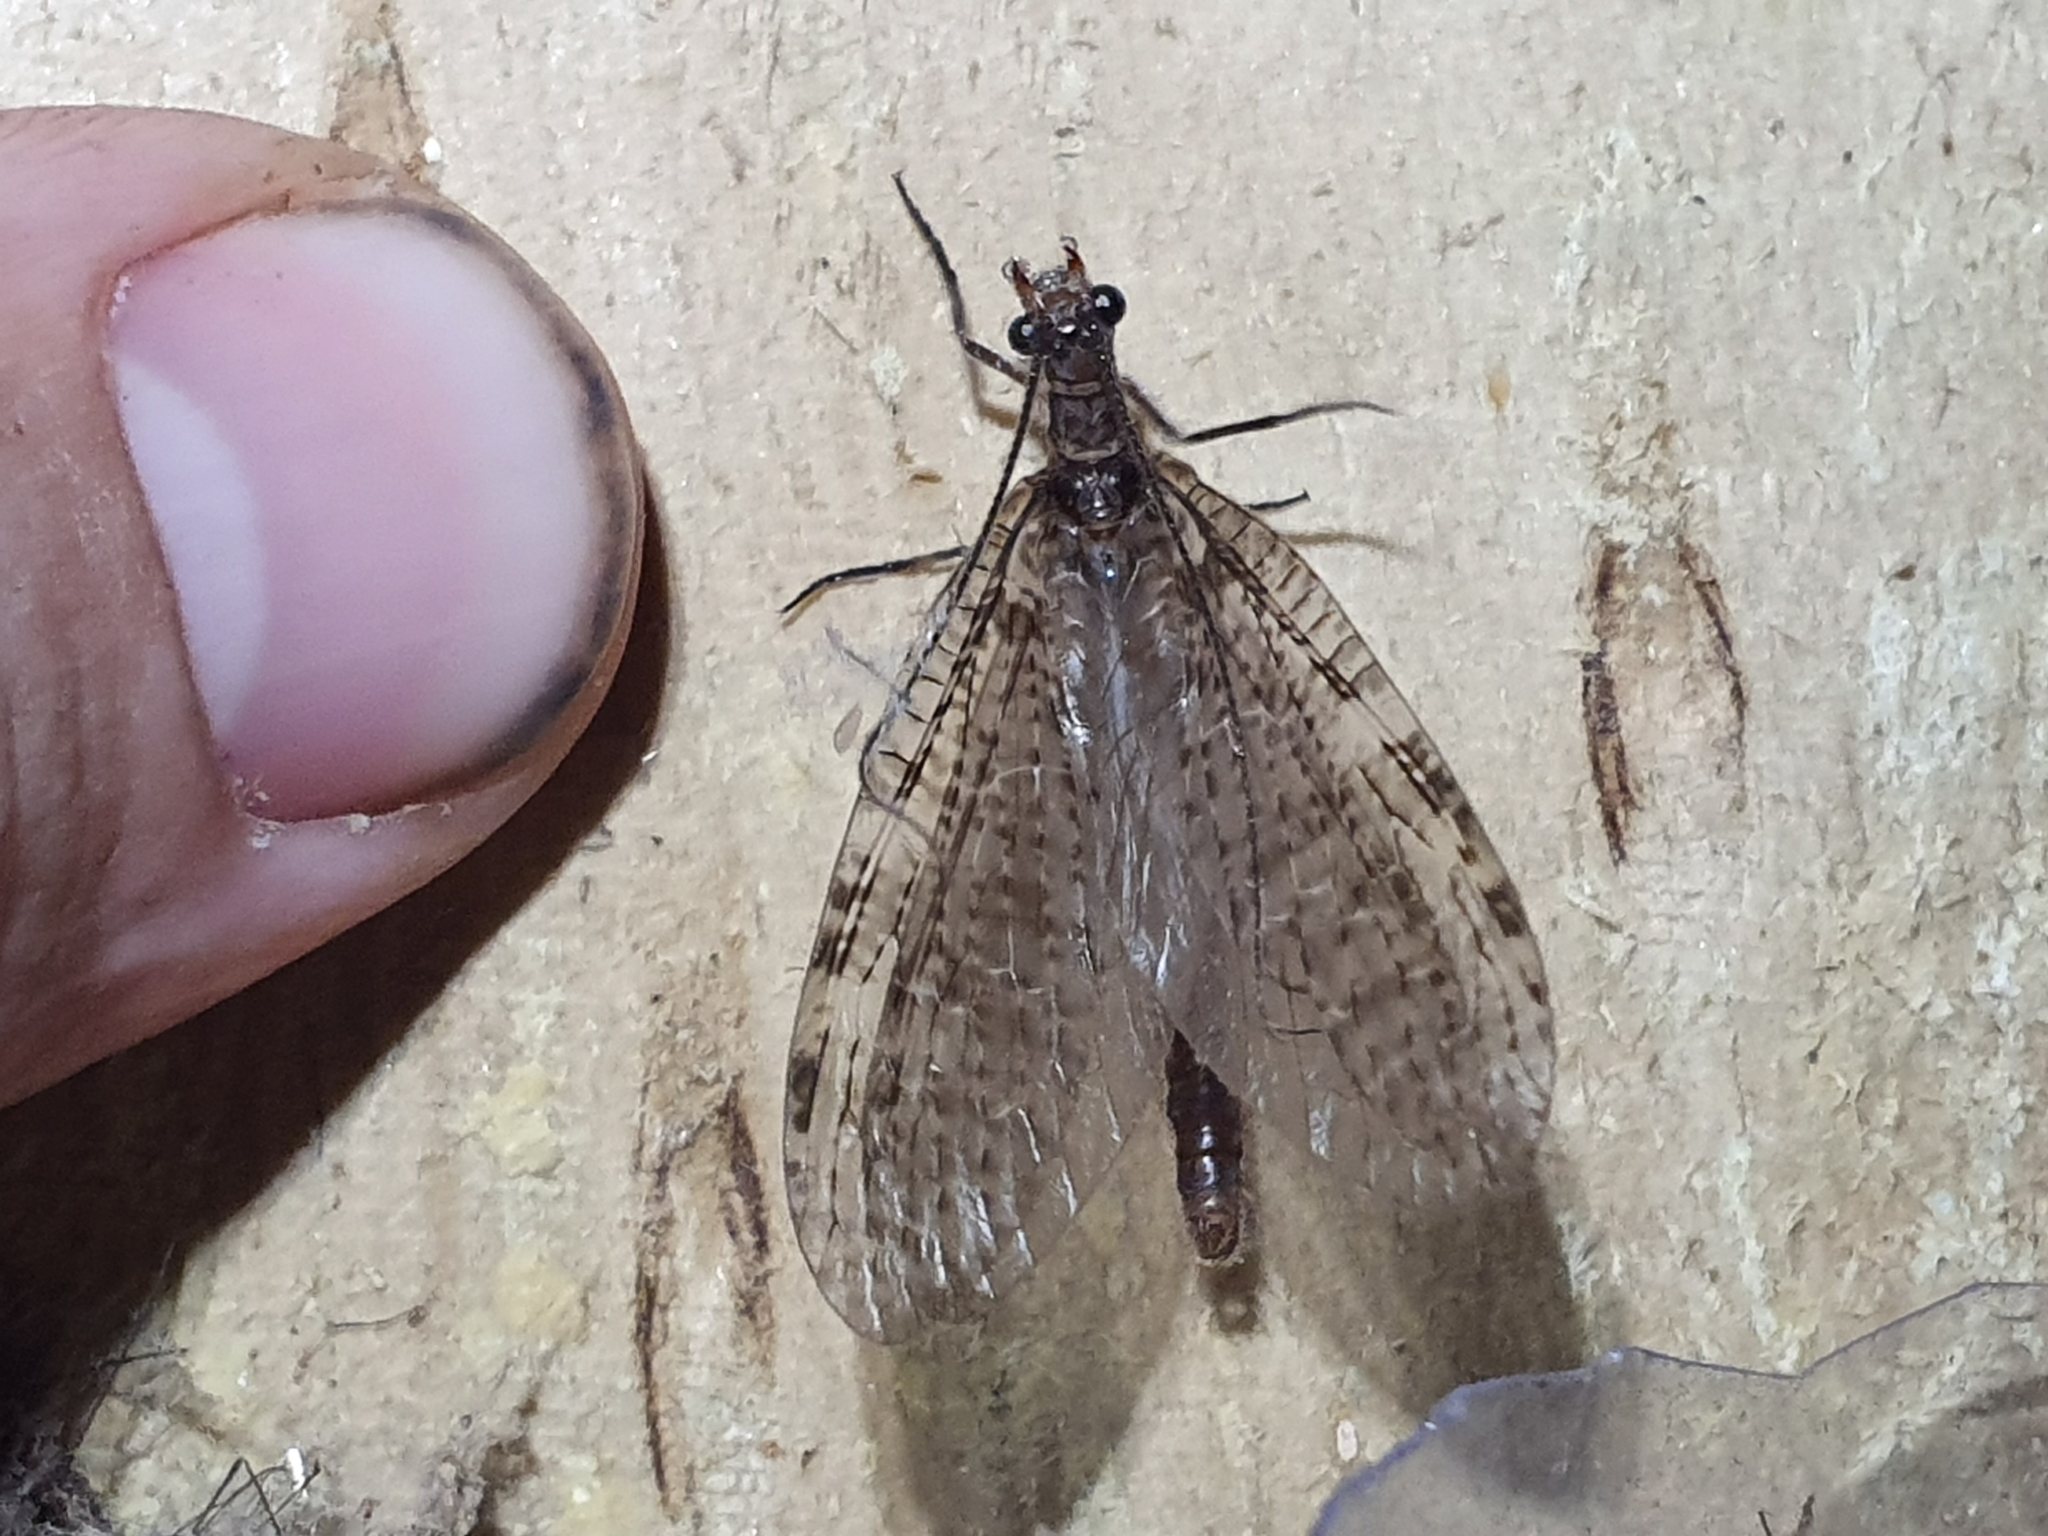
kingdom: Animalia
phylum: Arthropoda
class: Insecta
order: Megaloptera
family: Corydalidae
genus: Archichauliodes
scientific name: Archichauliodes diversus
